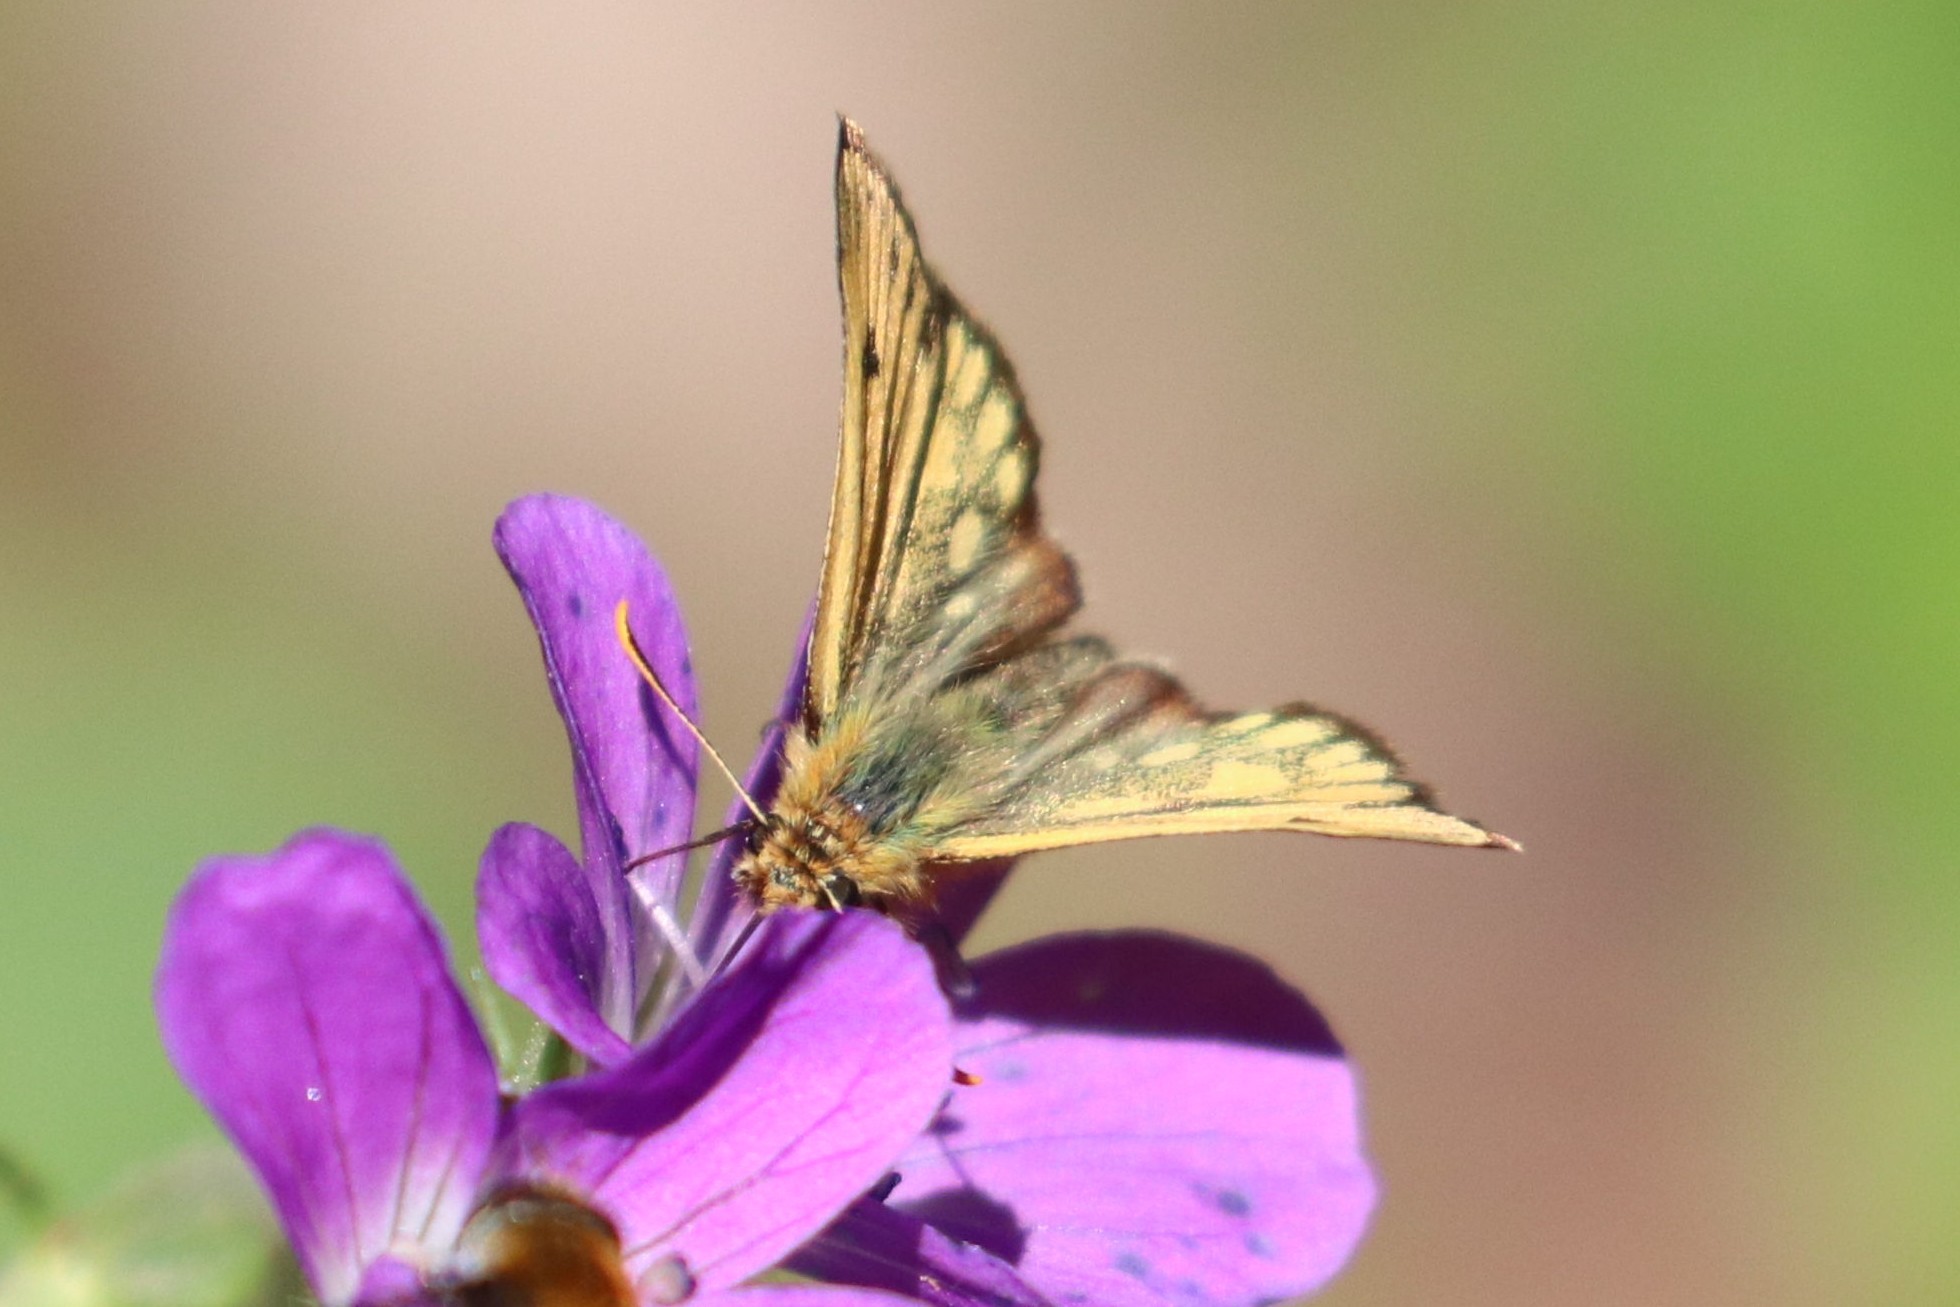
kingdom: Animalia
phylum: Arthropoda
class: Insecta
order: Lepidoptera
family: Hesperiidae
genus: Carterocephalus
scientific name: Carterocephalus silvicola
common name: Northern chequered skipper
